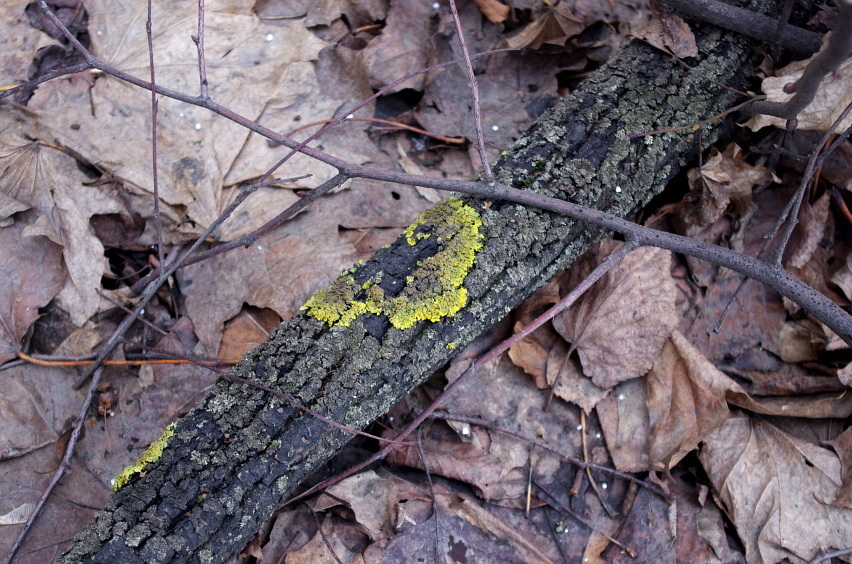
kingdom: Fungi
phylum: Ascomycota
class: Lecanoromycetes
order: Teloschistales
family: Teloschistaceae
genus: Xanthoria
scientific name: Xanthoria parietina
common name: Common orange lichen
